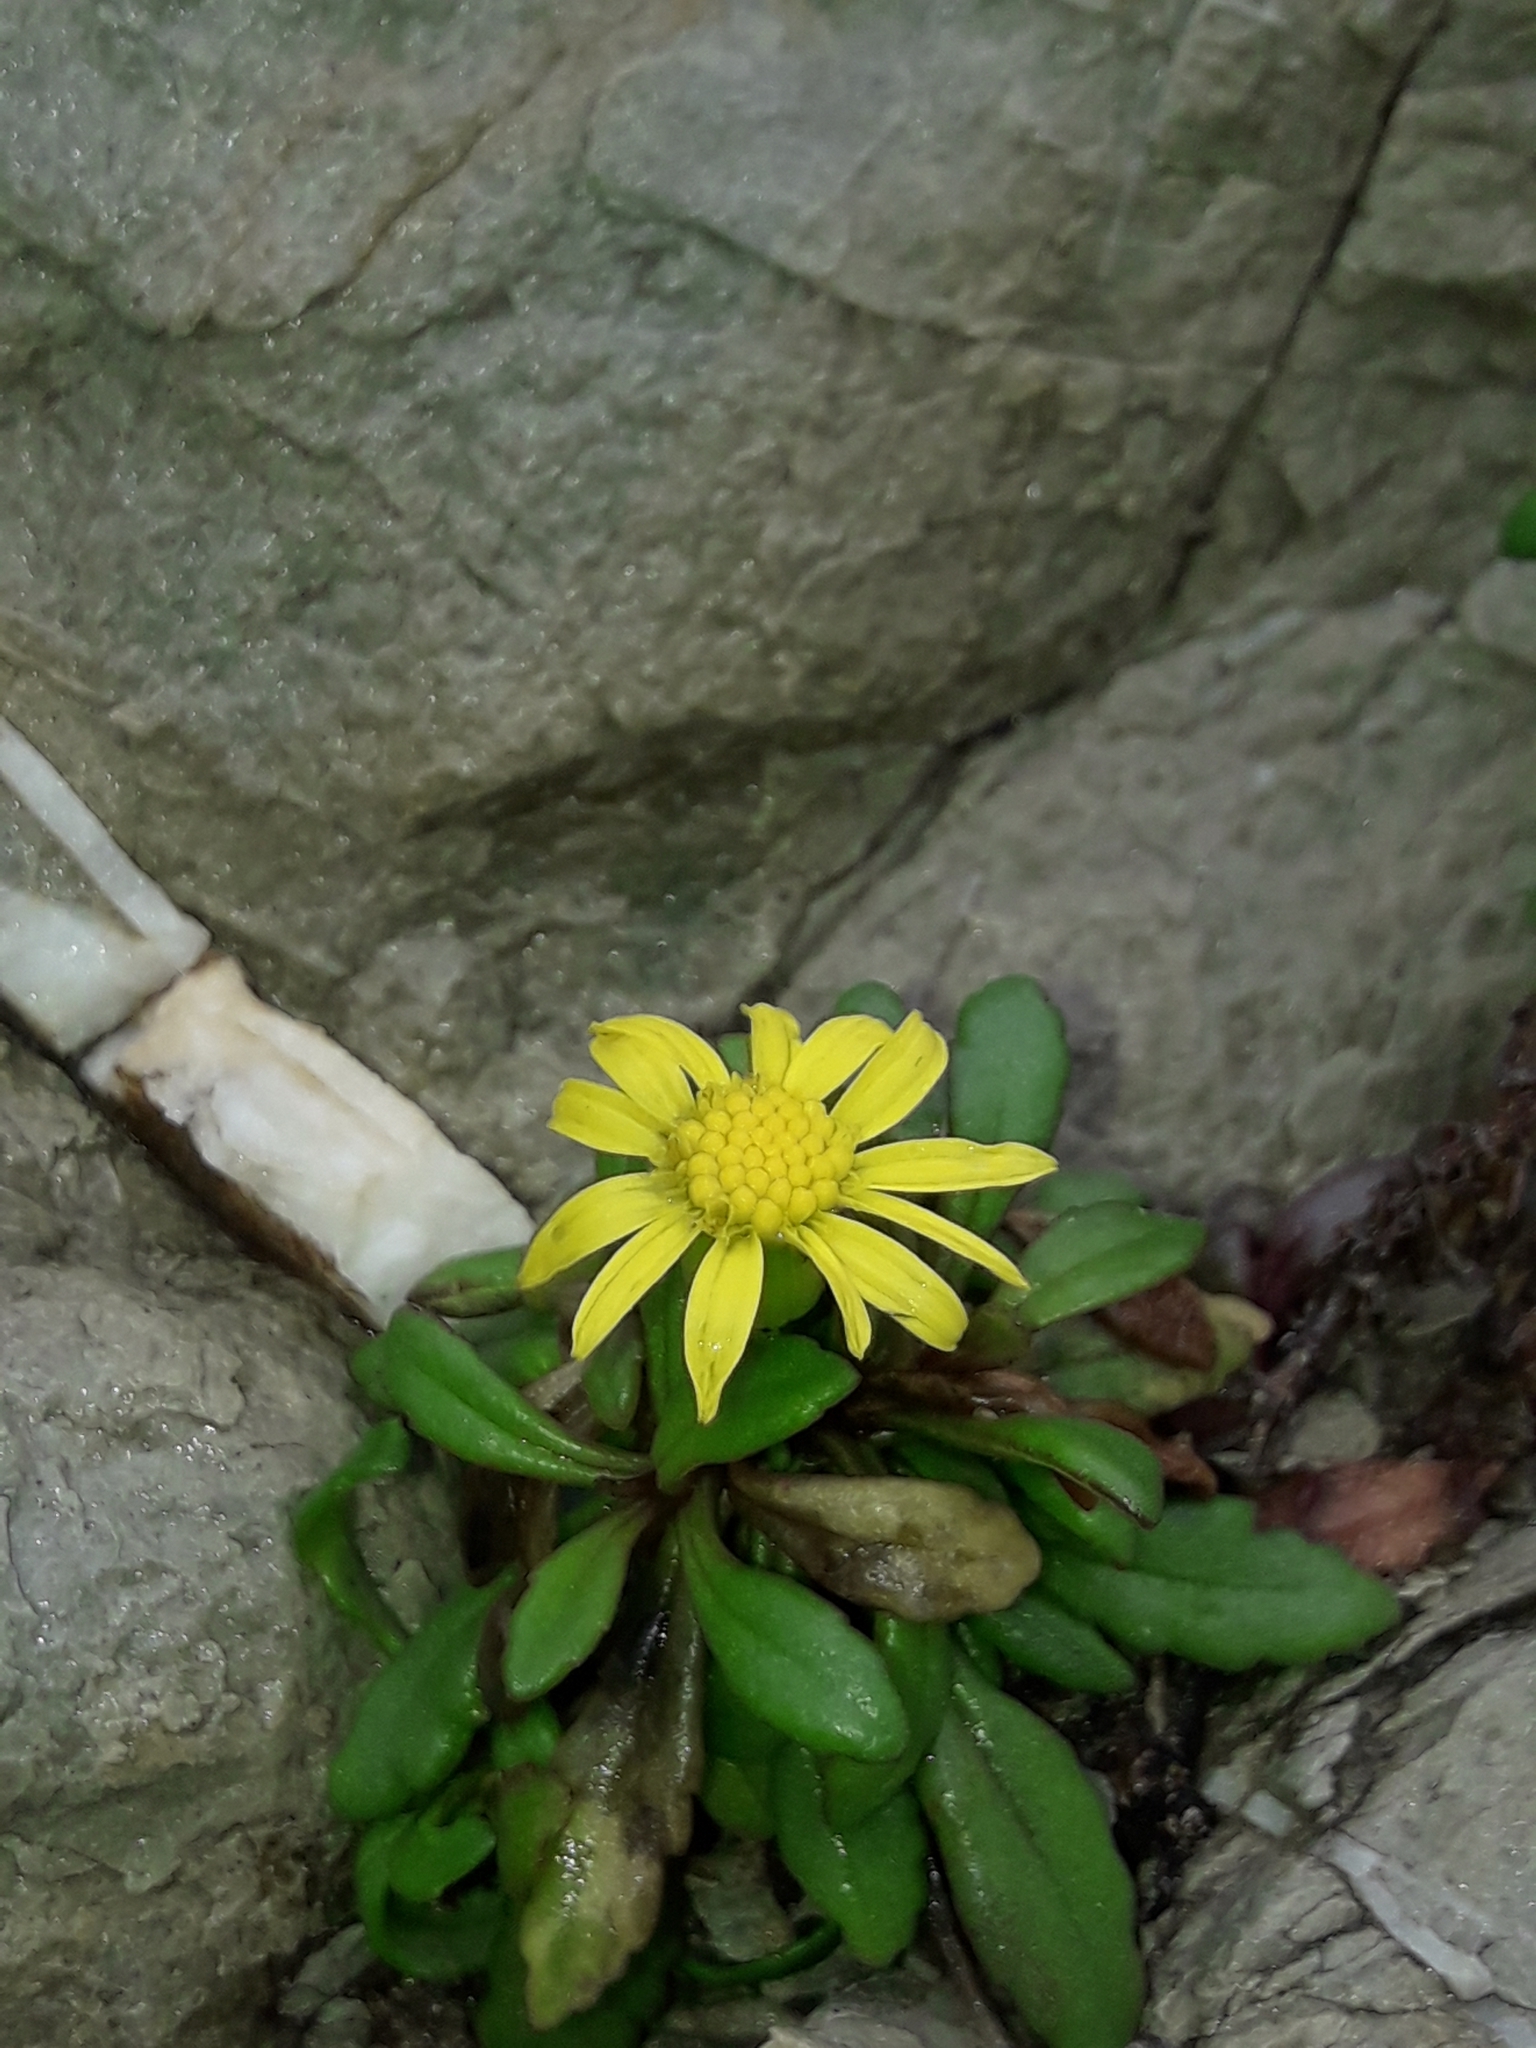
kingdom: Plantae
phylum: Tracheophyta
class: Magnoliopsida
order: Asterales
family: Asteraceae
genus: Senecio
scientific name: Senecio lautus
